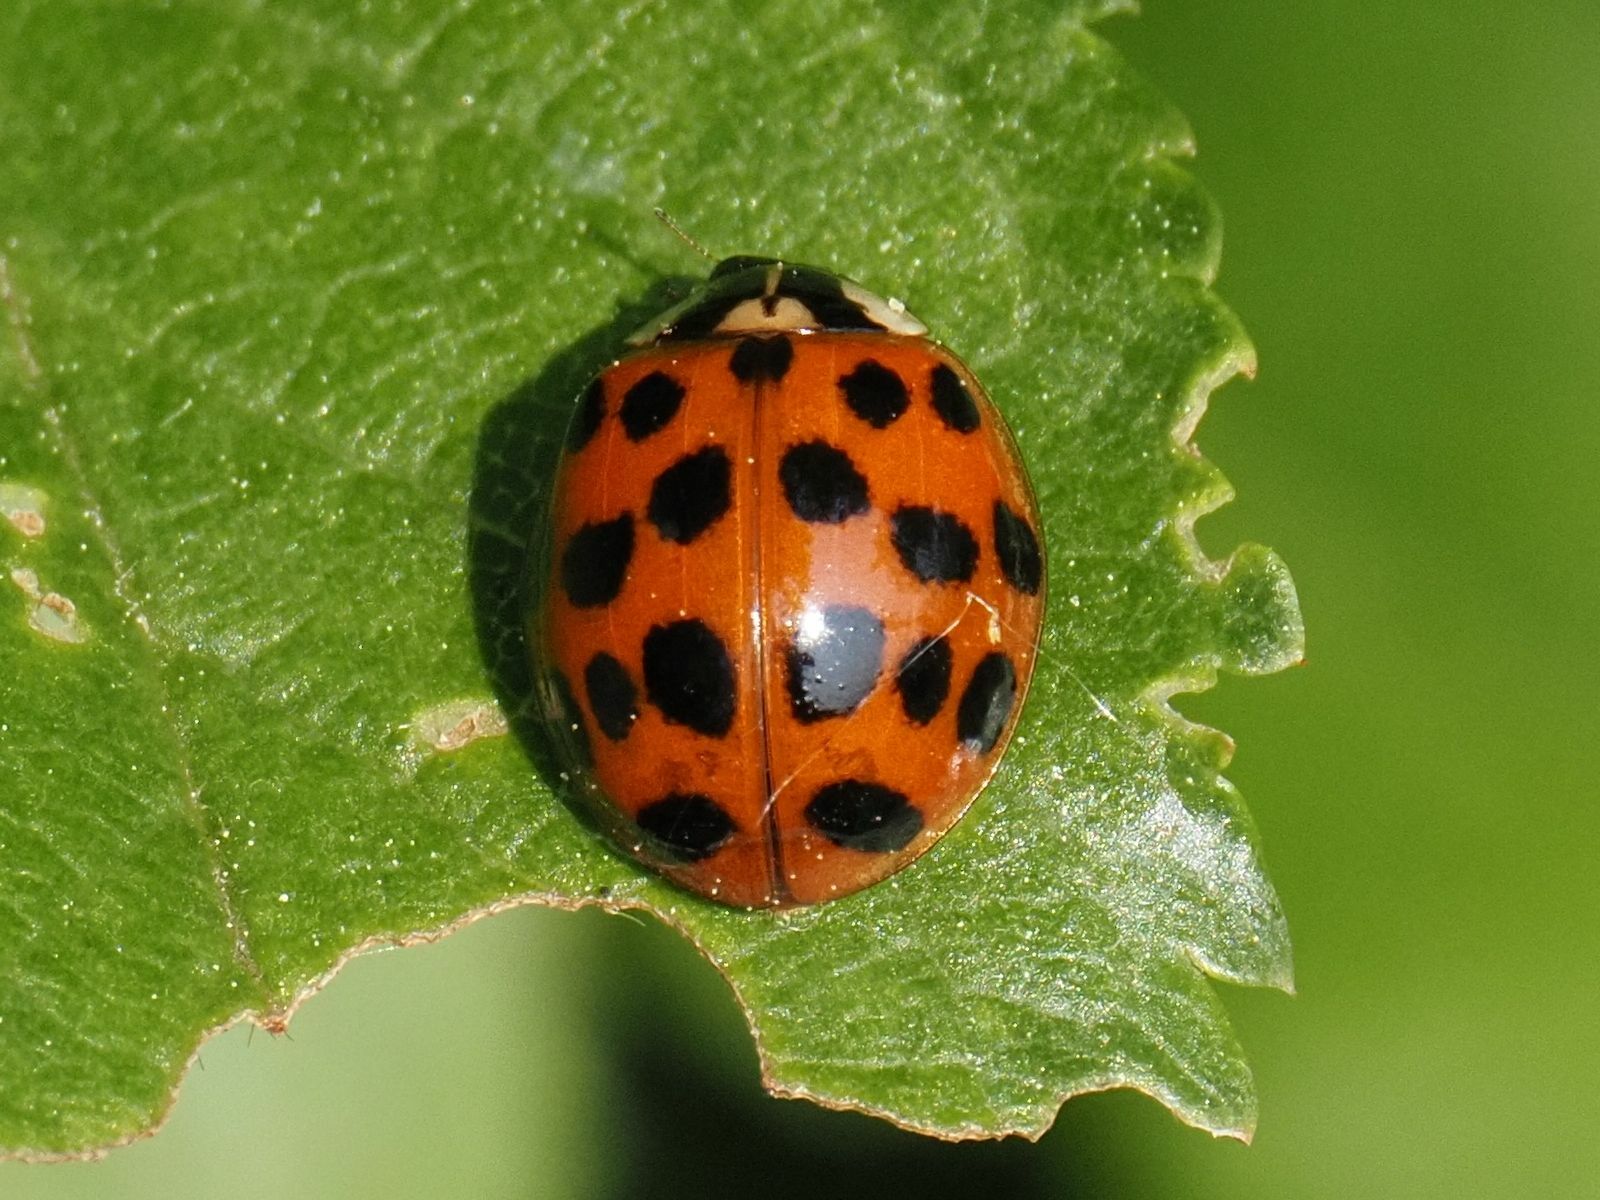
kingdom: Animalia
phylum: Arthropoda
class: Insecta
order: Coleoptera
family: Coccinellidae
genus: Harmonia
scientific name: Harmonia axyridis
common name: Harlequin ladybird
